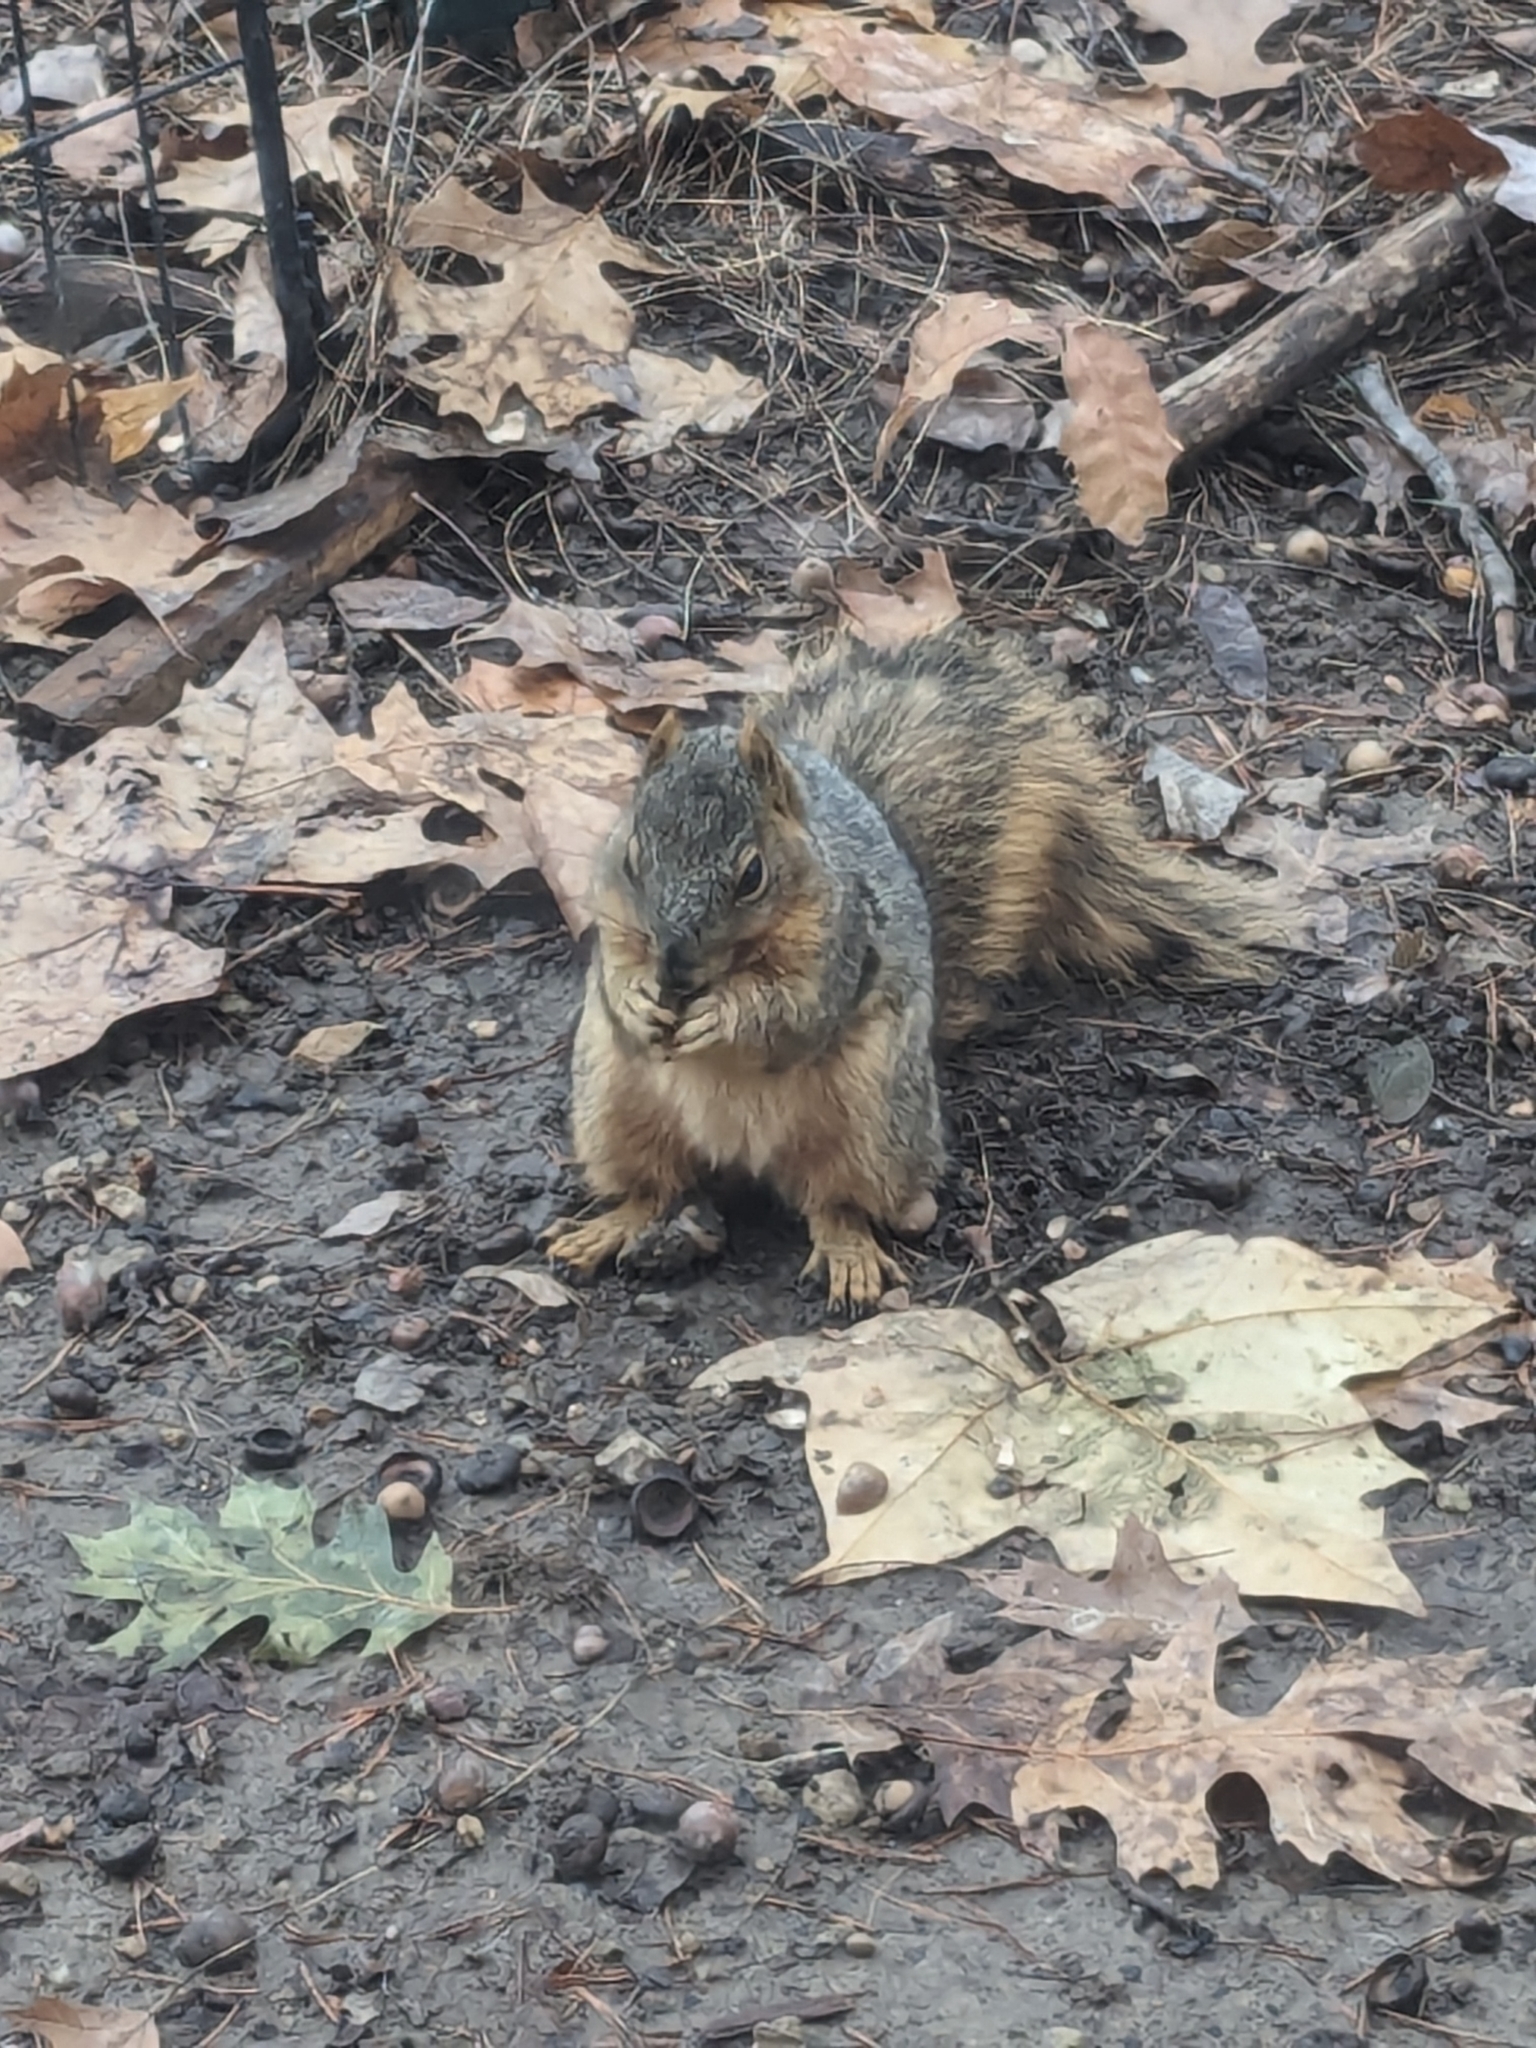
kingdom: Animalia
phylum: Chordata
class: Mammalia
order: Rodentia
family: Sciuridae
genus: Sciurus
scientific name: Sciurus niger
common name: Fox squirrel
